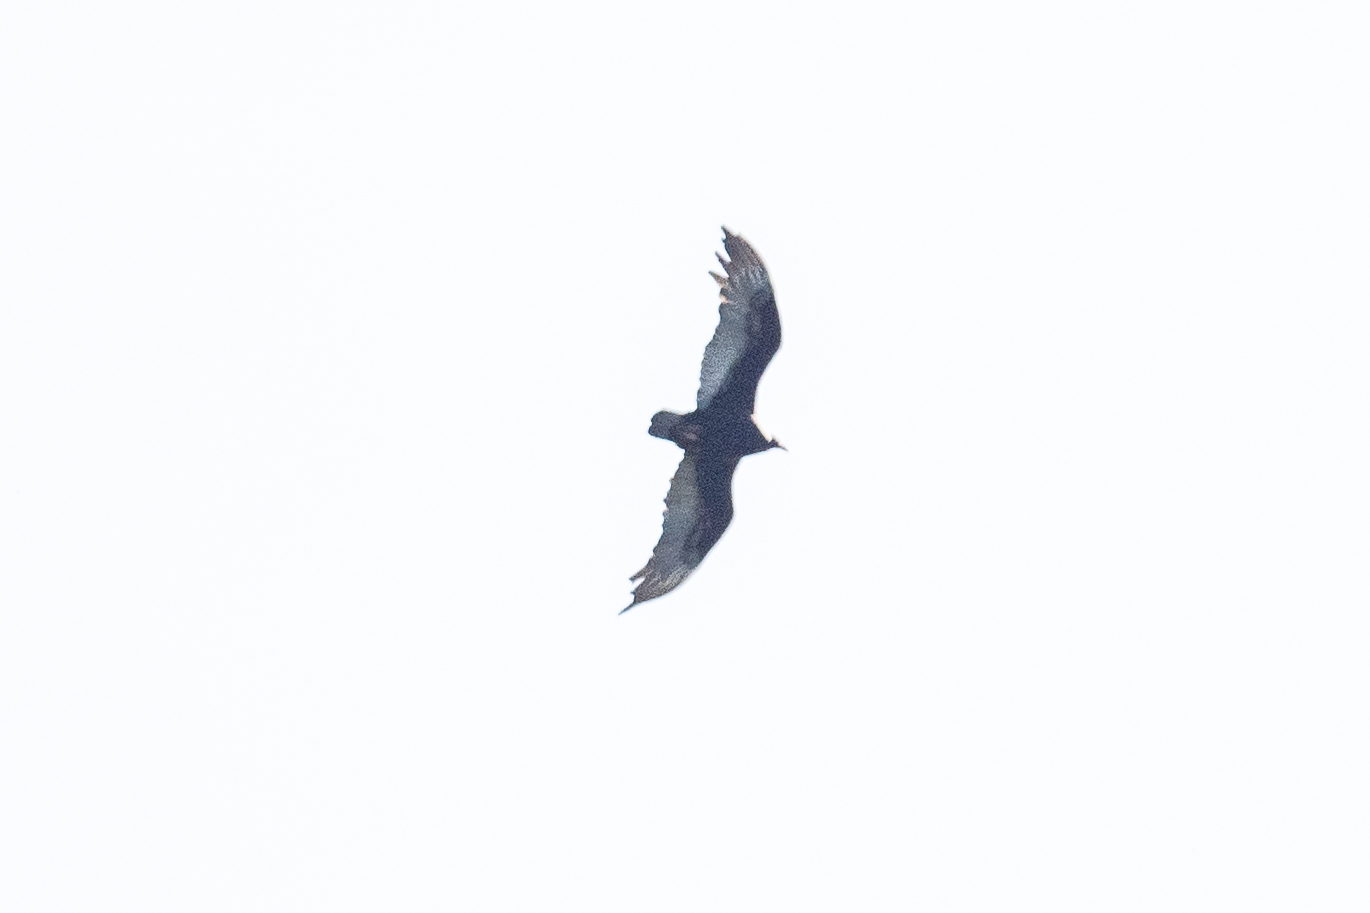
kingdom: Animalia
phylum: Chordata
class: Aves
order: Accipitriformes
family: Cathartidae
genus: Cathartes
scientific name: Cathartes aura
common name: Turkey vulture
